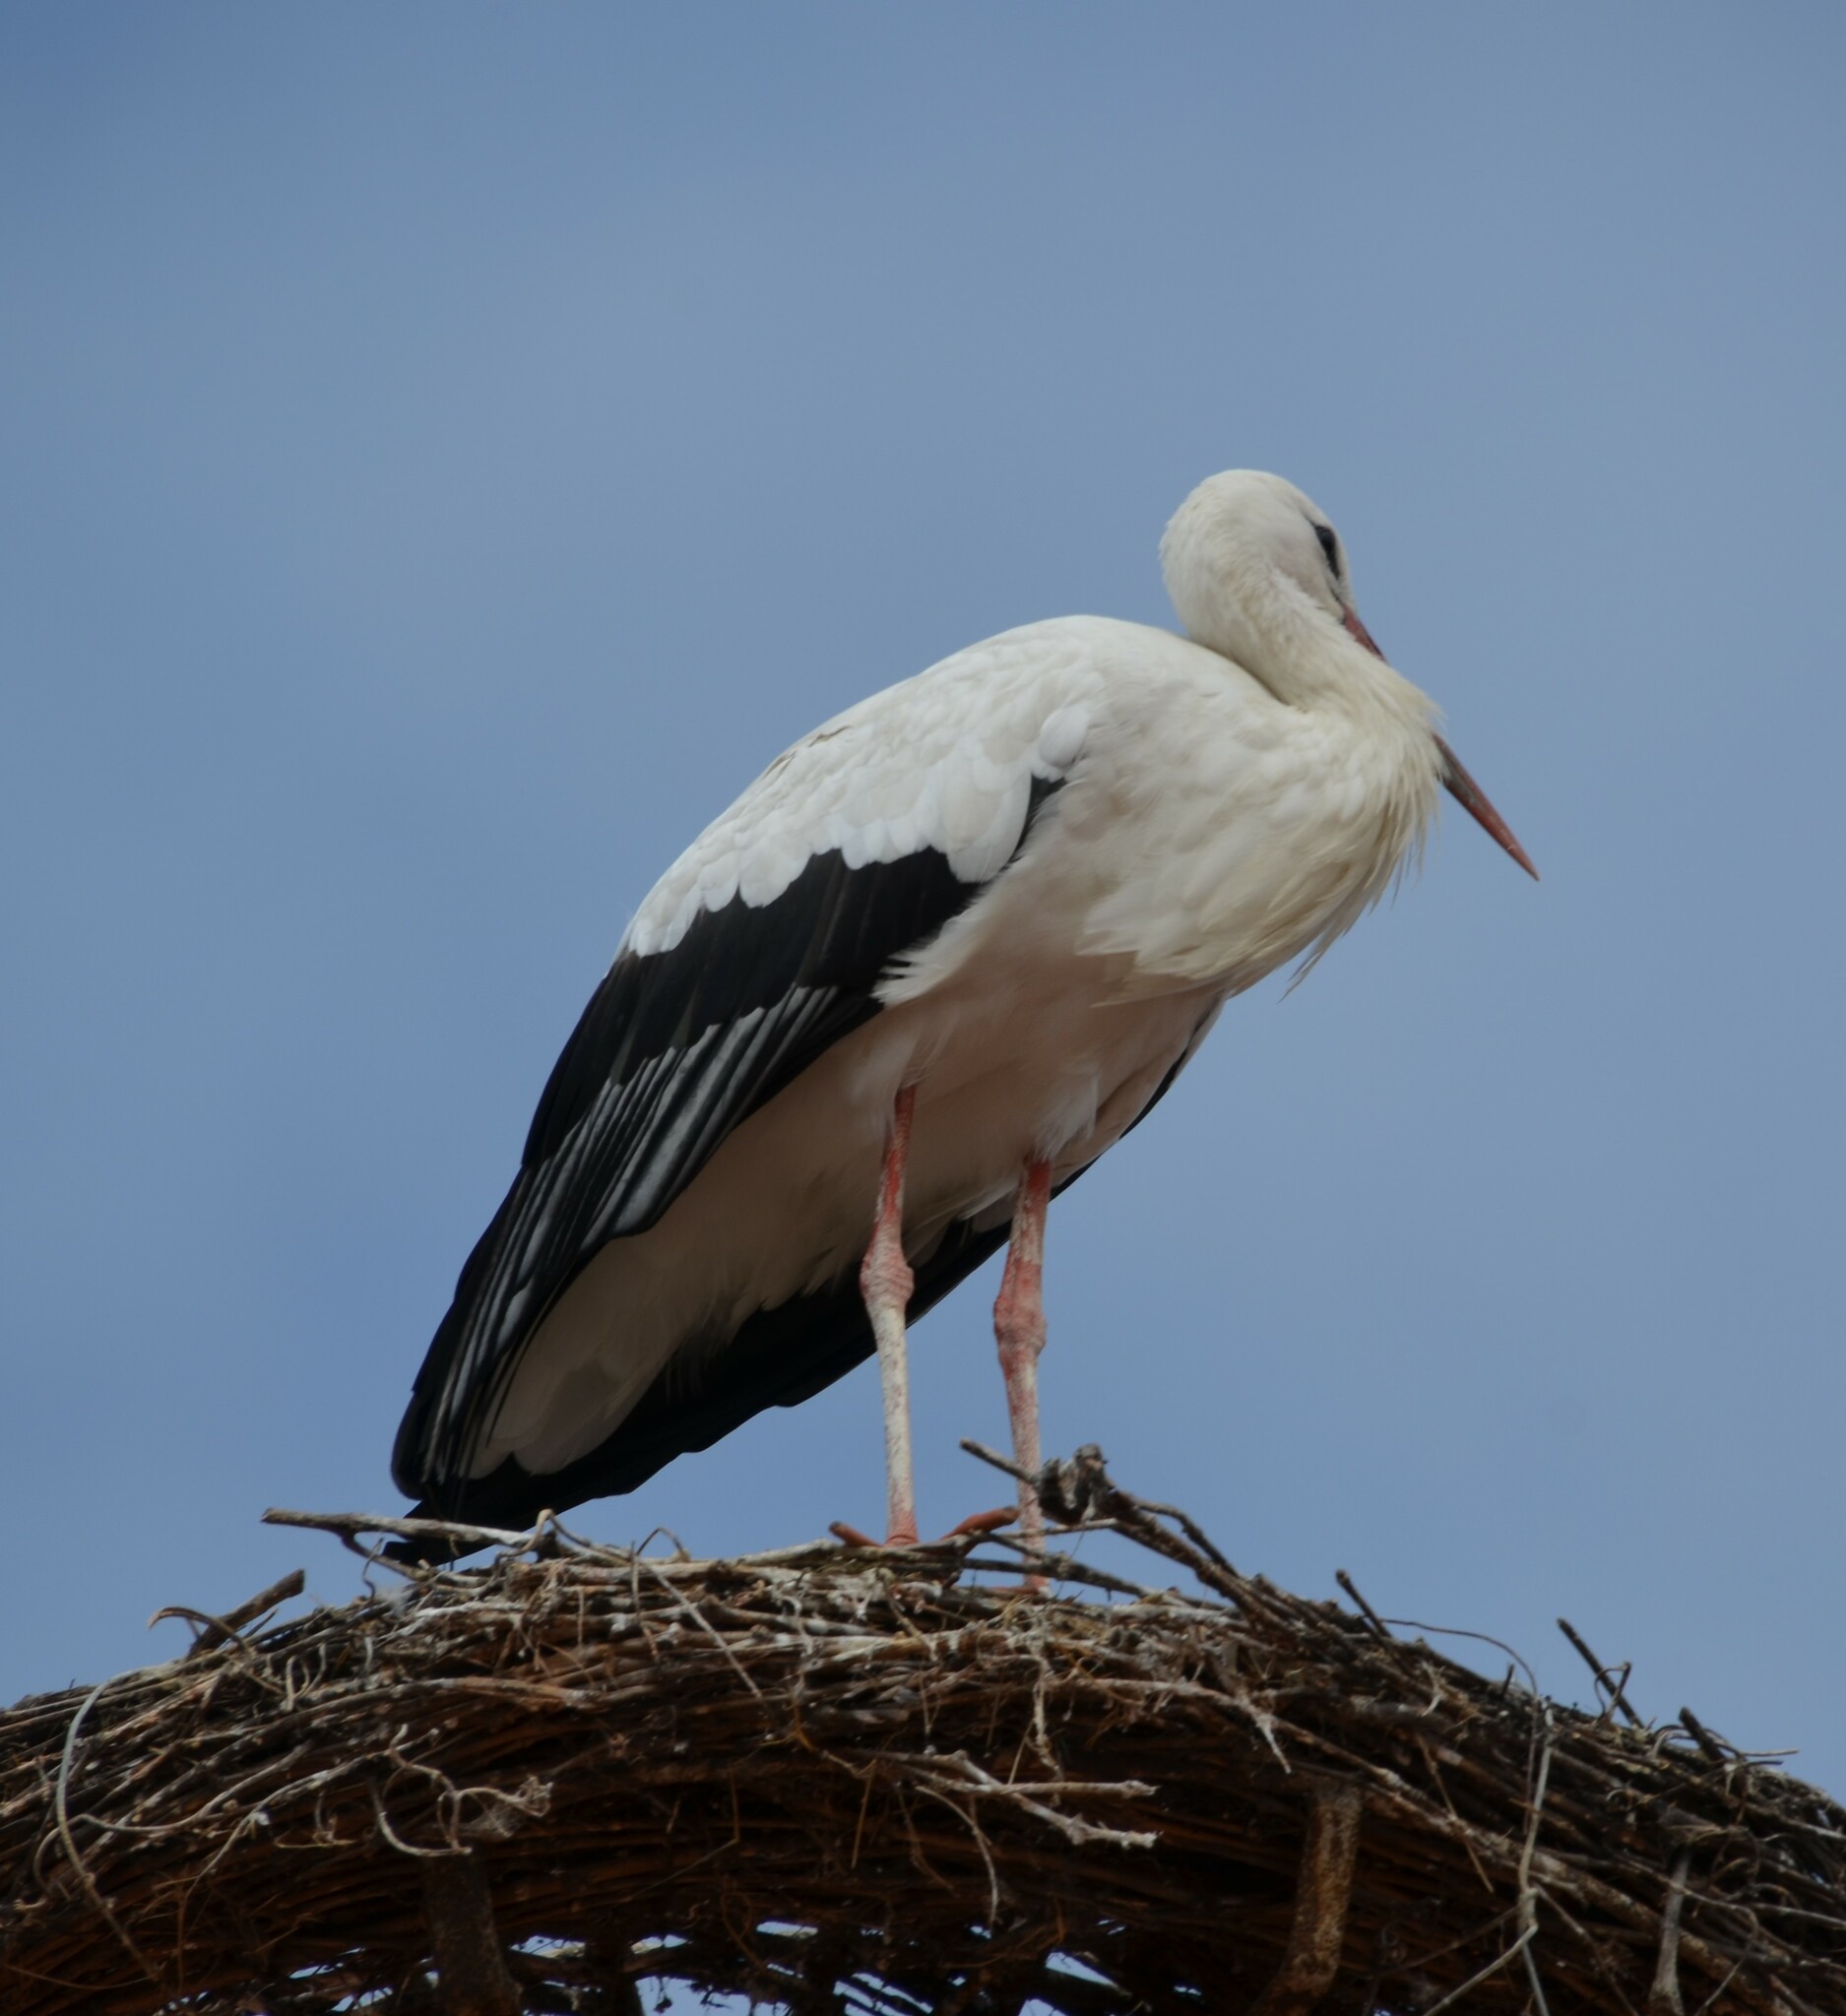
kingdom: Animalia
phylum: Chordata
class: Aves
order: Ciconiiformes
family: Ciconiidae
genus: Ciconia
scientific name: Ciconia ciconia
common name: White stork
